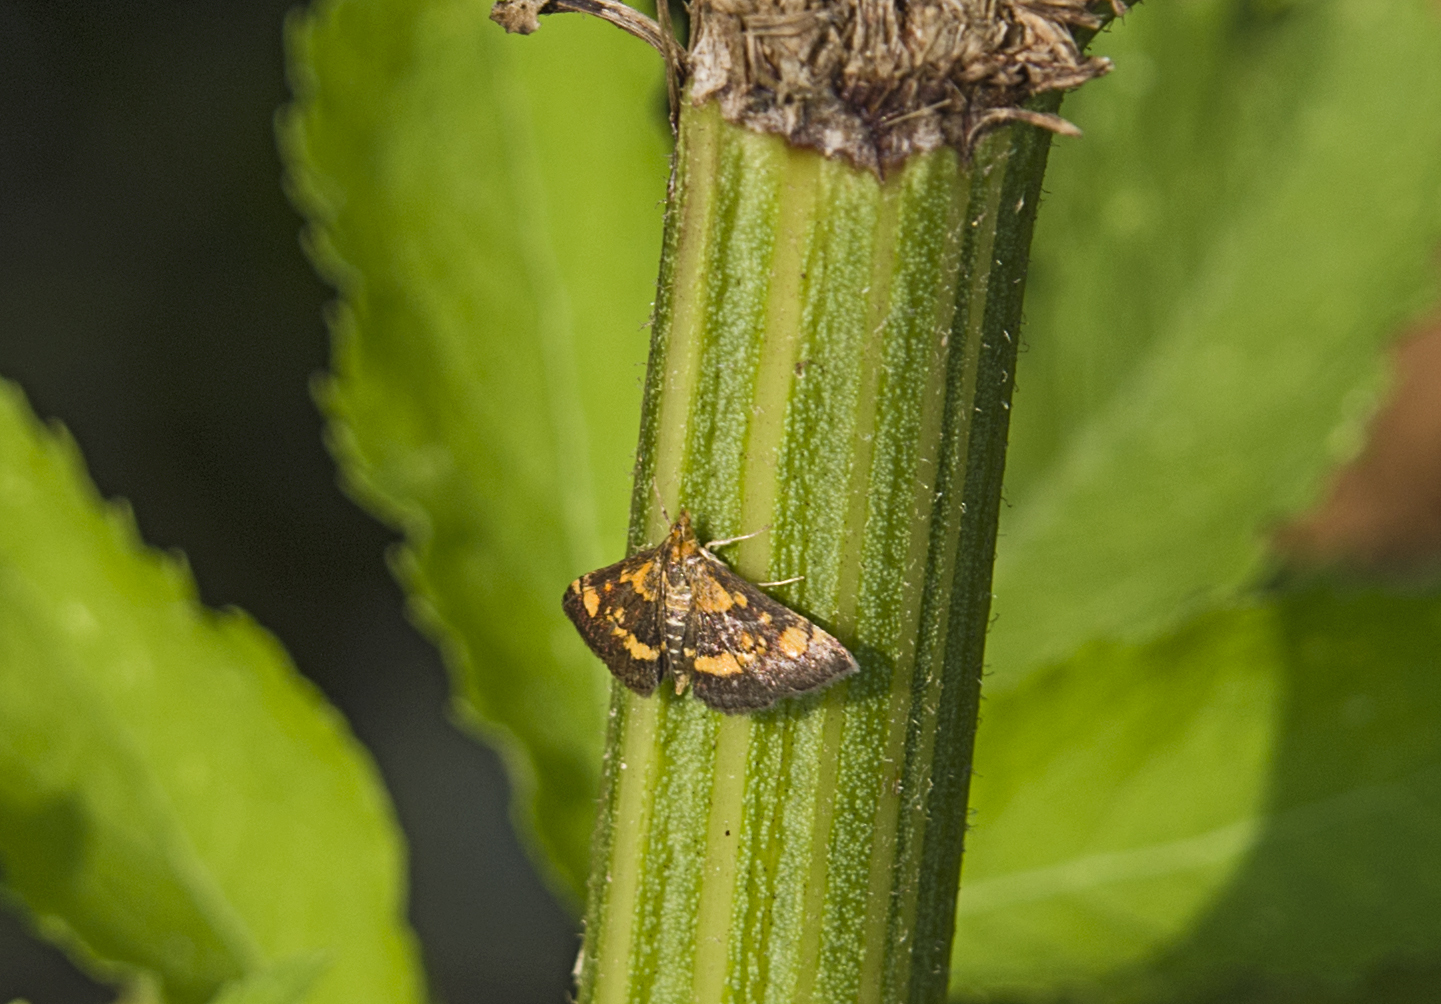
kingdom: Animalia
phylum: Arthropoda
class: Insecta
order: Lepidoptera
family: Crambidae
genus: Pyrausta
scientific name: Pyrausta aurata
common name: Small purple & gold
